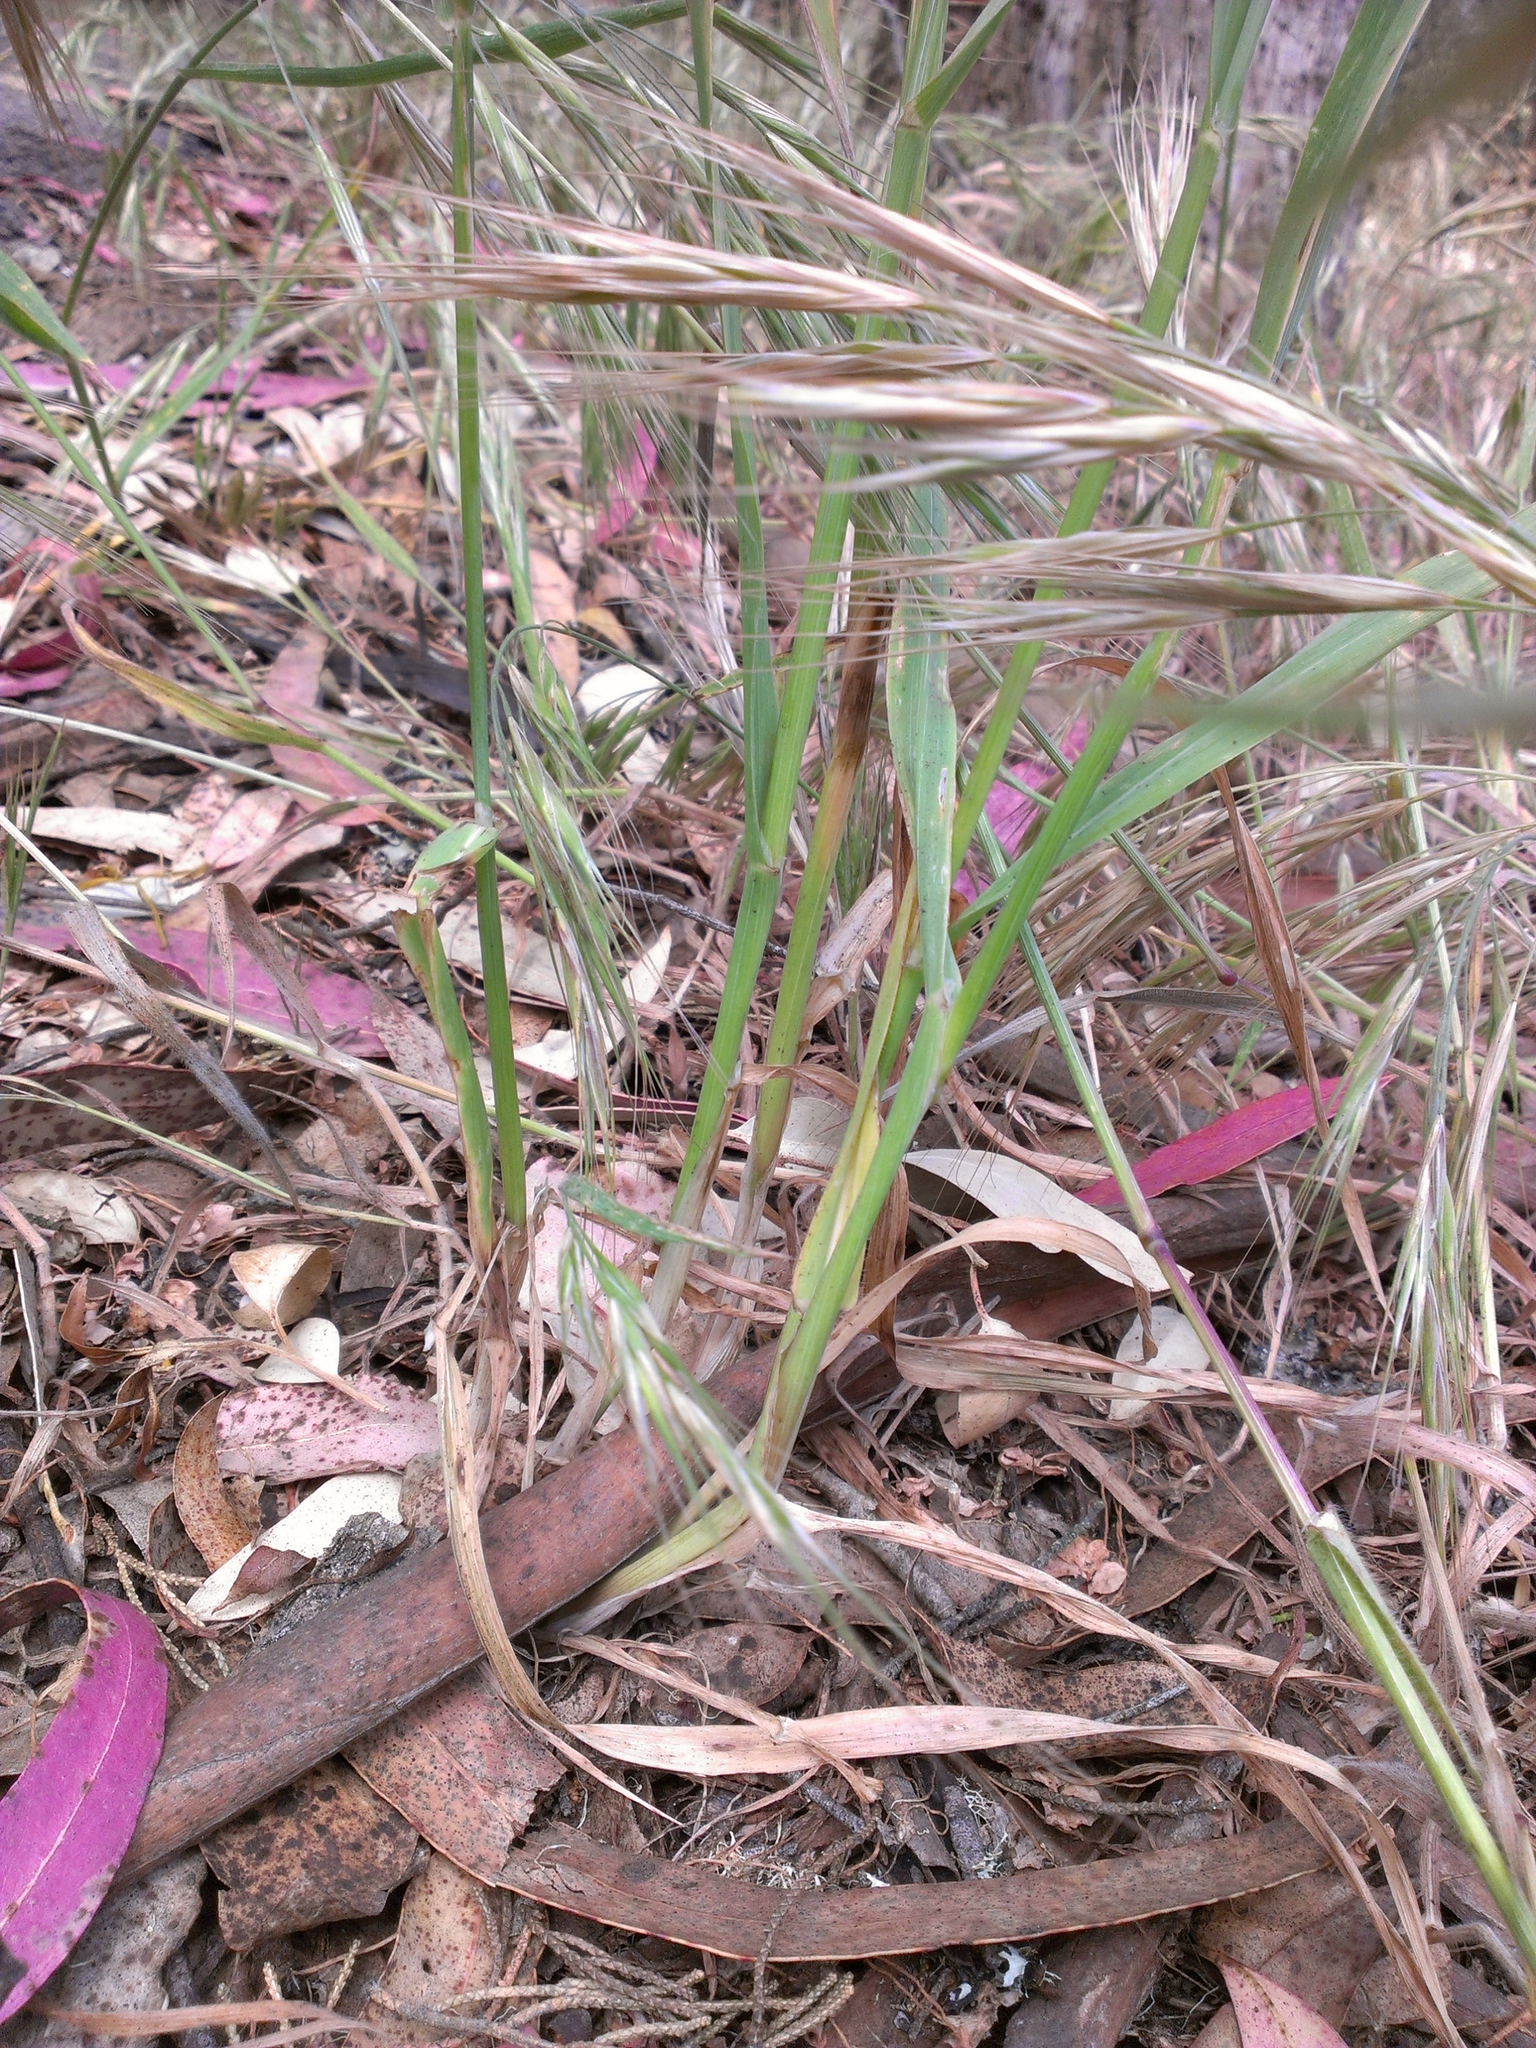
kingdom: Plantae
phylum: Tracheophyta
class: Liliopsida
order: Poales
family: Poaceae
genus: Avena
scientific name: Avena fatua
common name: Wild oat
